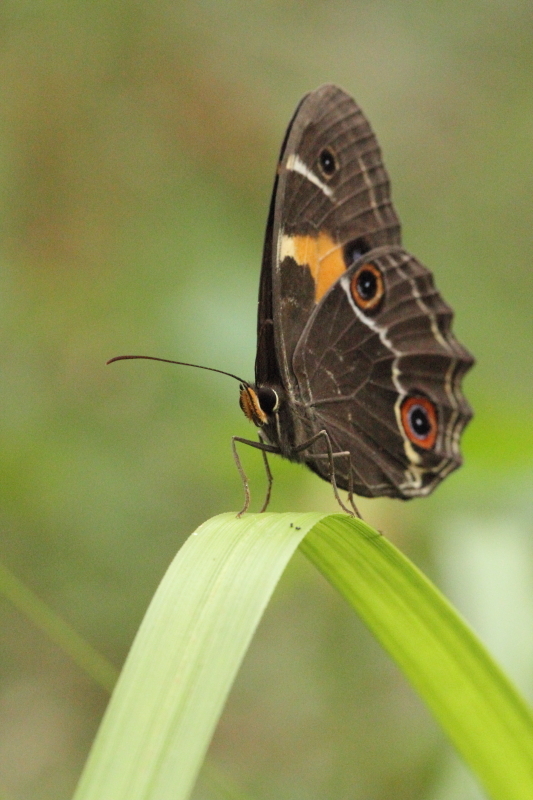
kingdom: Animalia
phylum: Arthropoda
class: Insecta
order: Lepidoptera
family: Nymphalidae
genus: Tisiphone
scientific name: Tisiphone abeona
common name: Swordgrass brown
